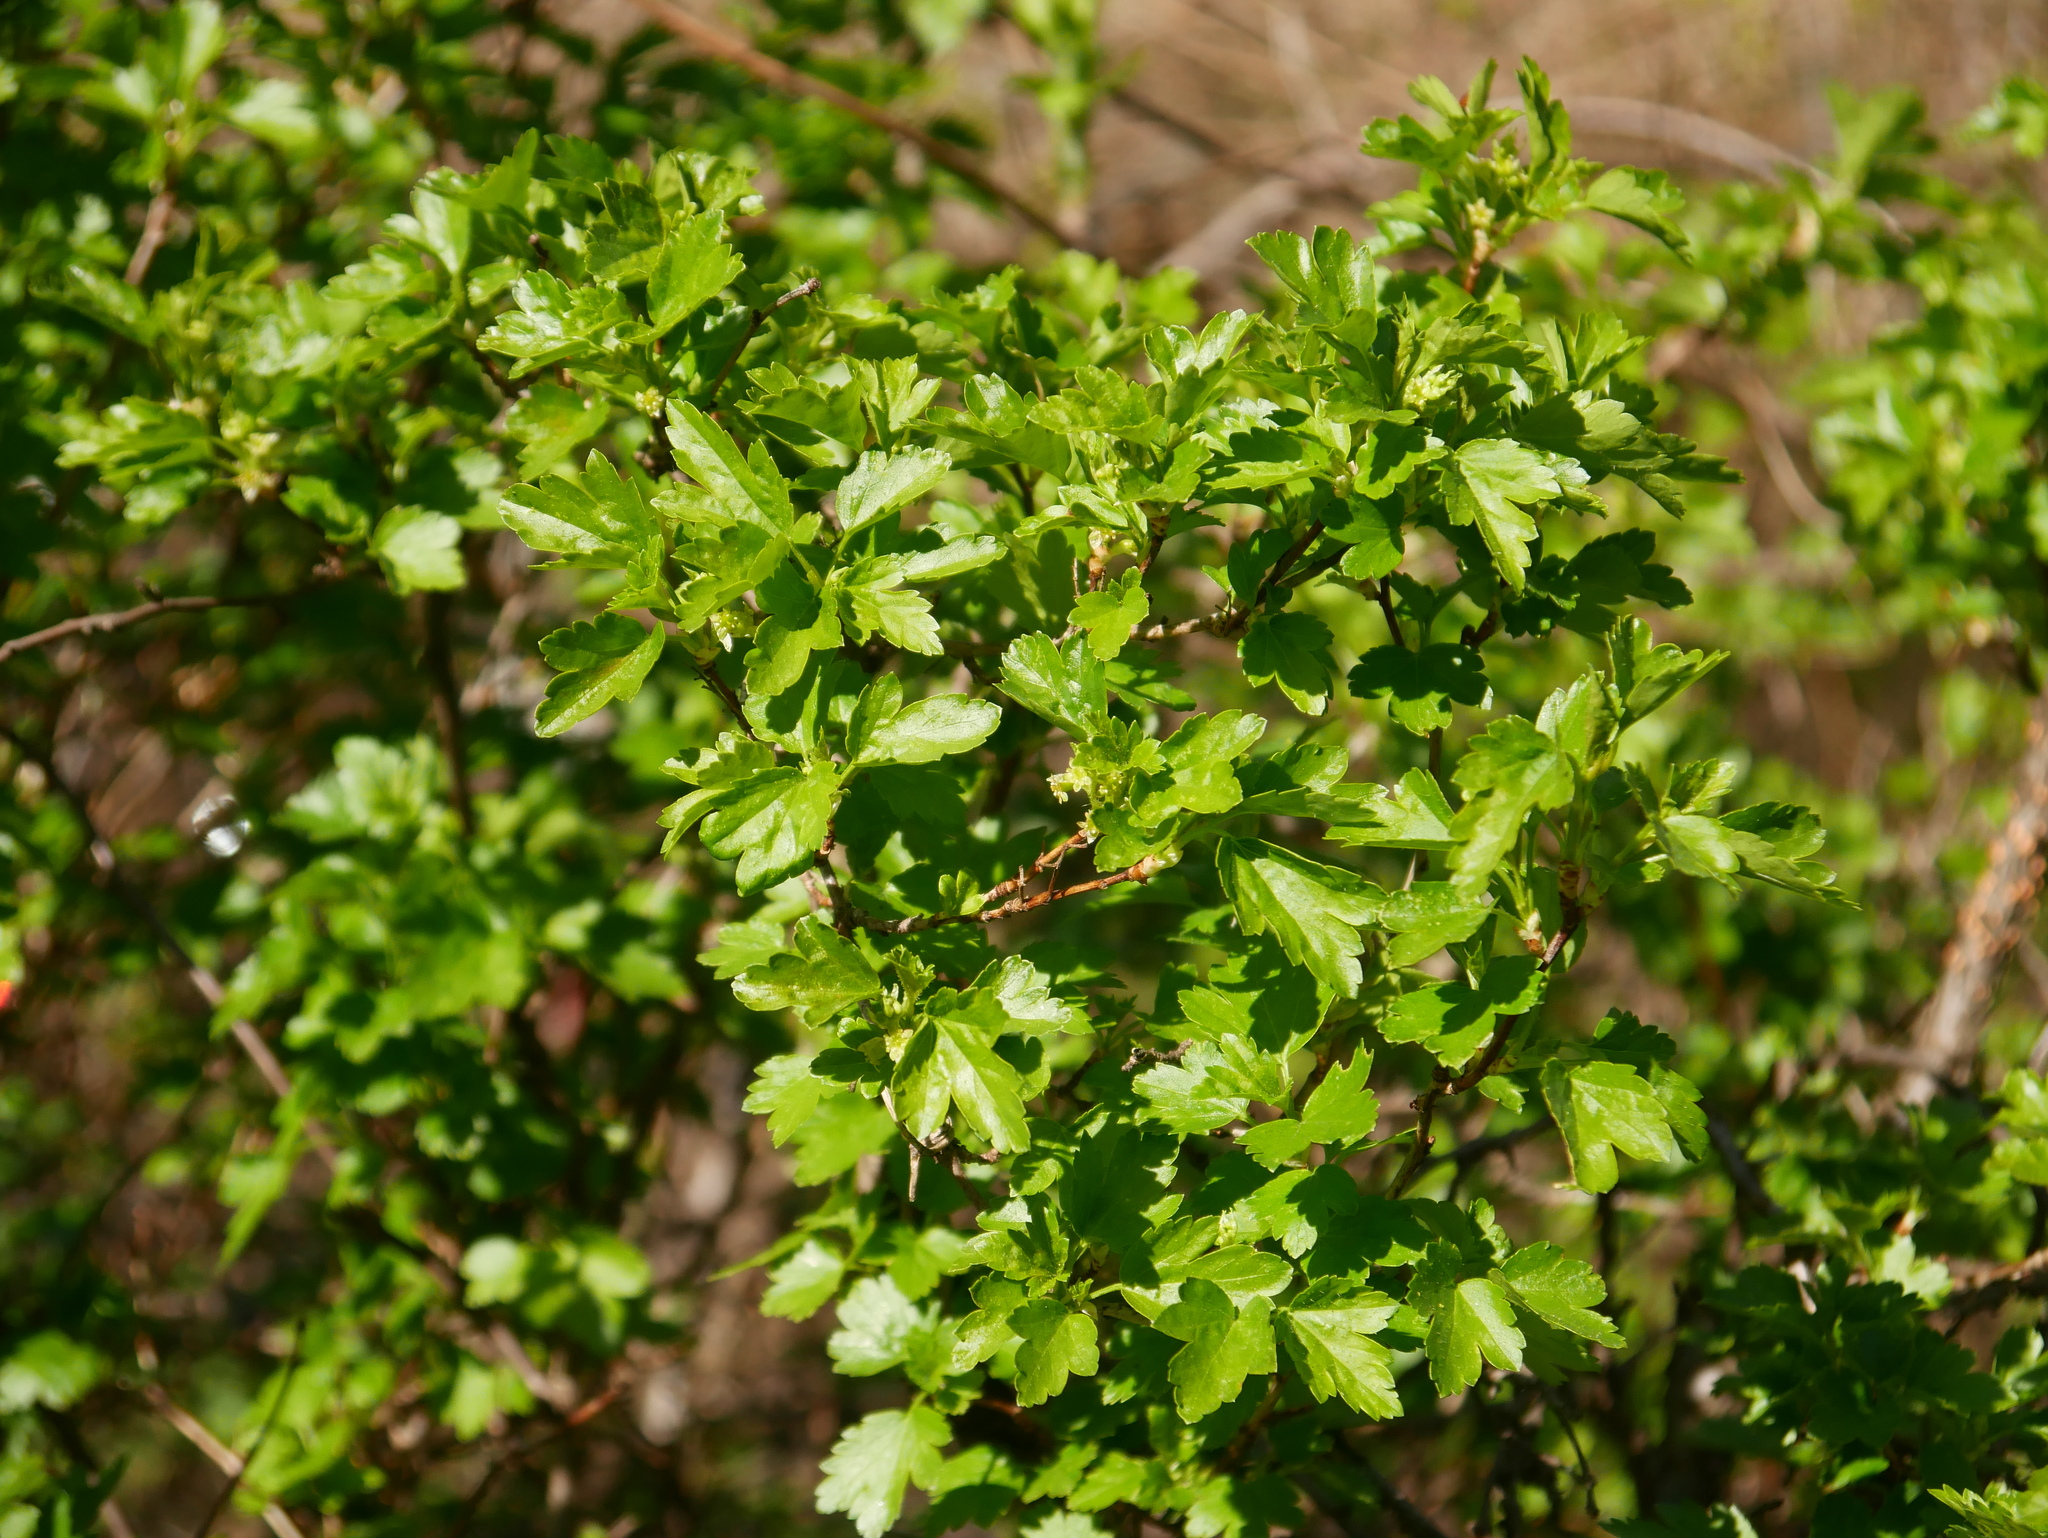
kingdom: Plantae
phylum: Tracheophyta
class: Magnoliopsida
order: Rosales
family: Rosaceae
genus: Crataegus
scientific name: Crataegus monogyna
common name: Hawthorn
